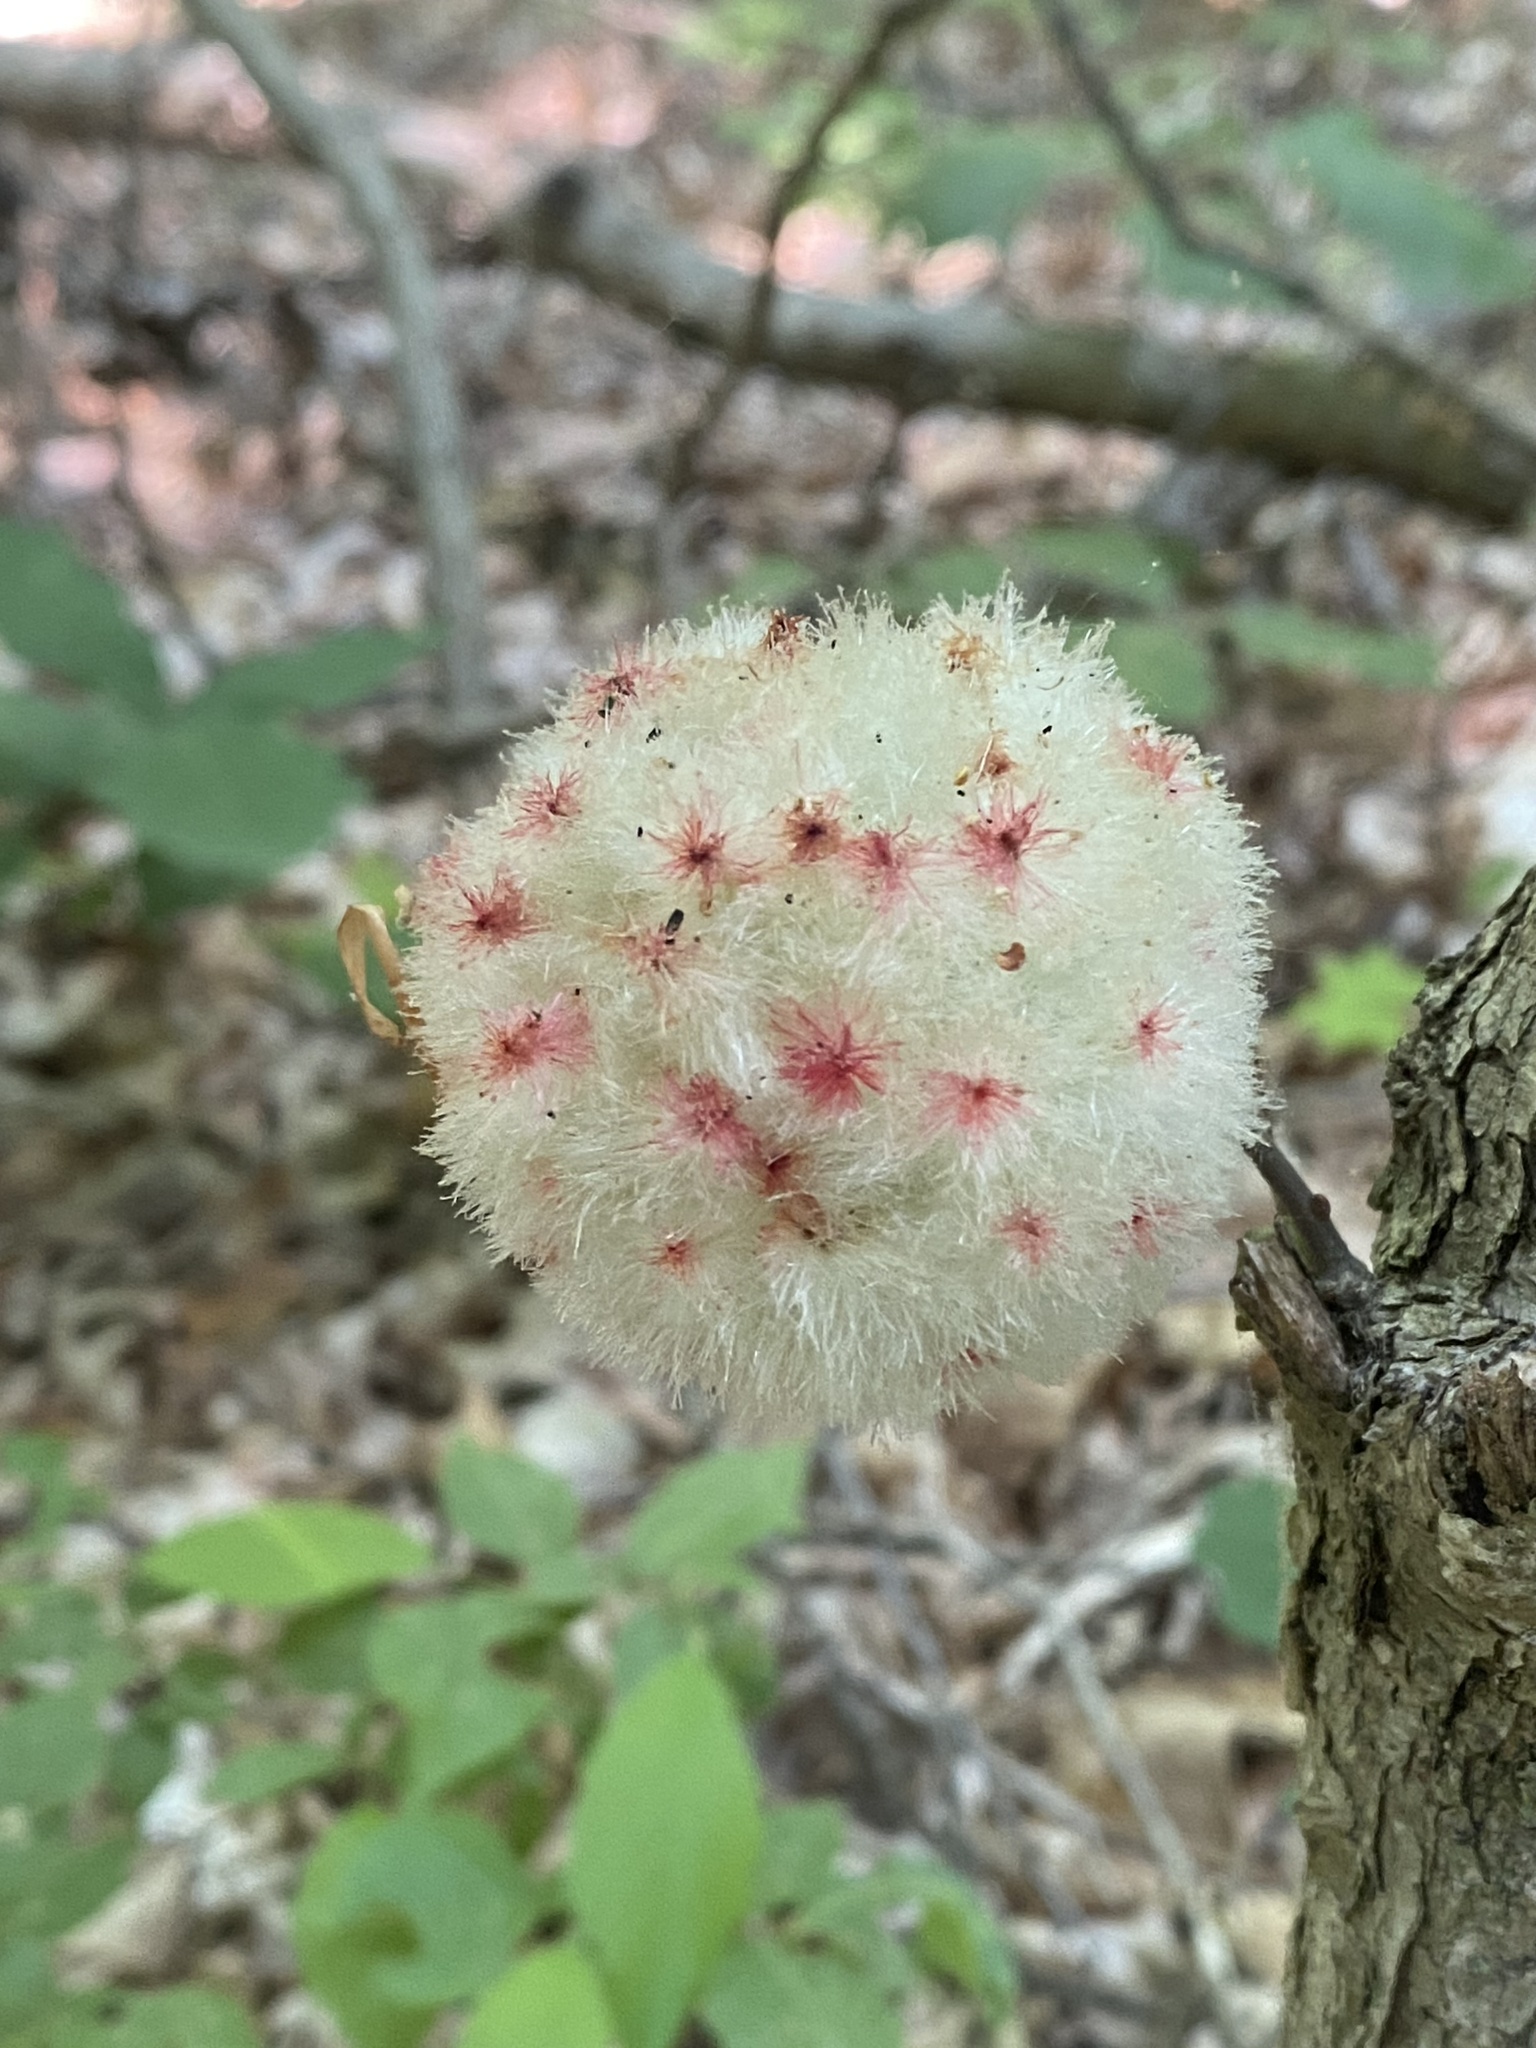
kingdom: Animalia
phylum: Arthropoda
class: Insecta
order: Hymenoptera
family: Cynipidae
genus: Callirhytis
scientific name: Callirhytis
